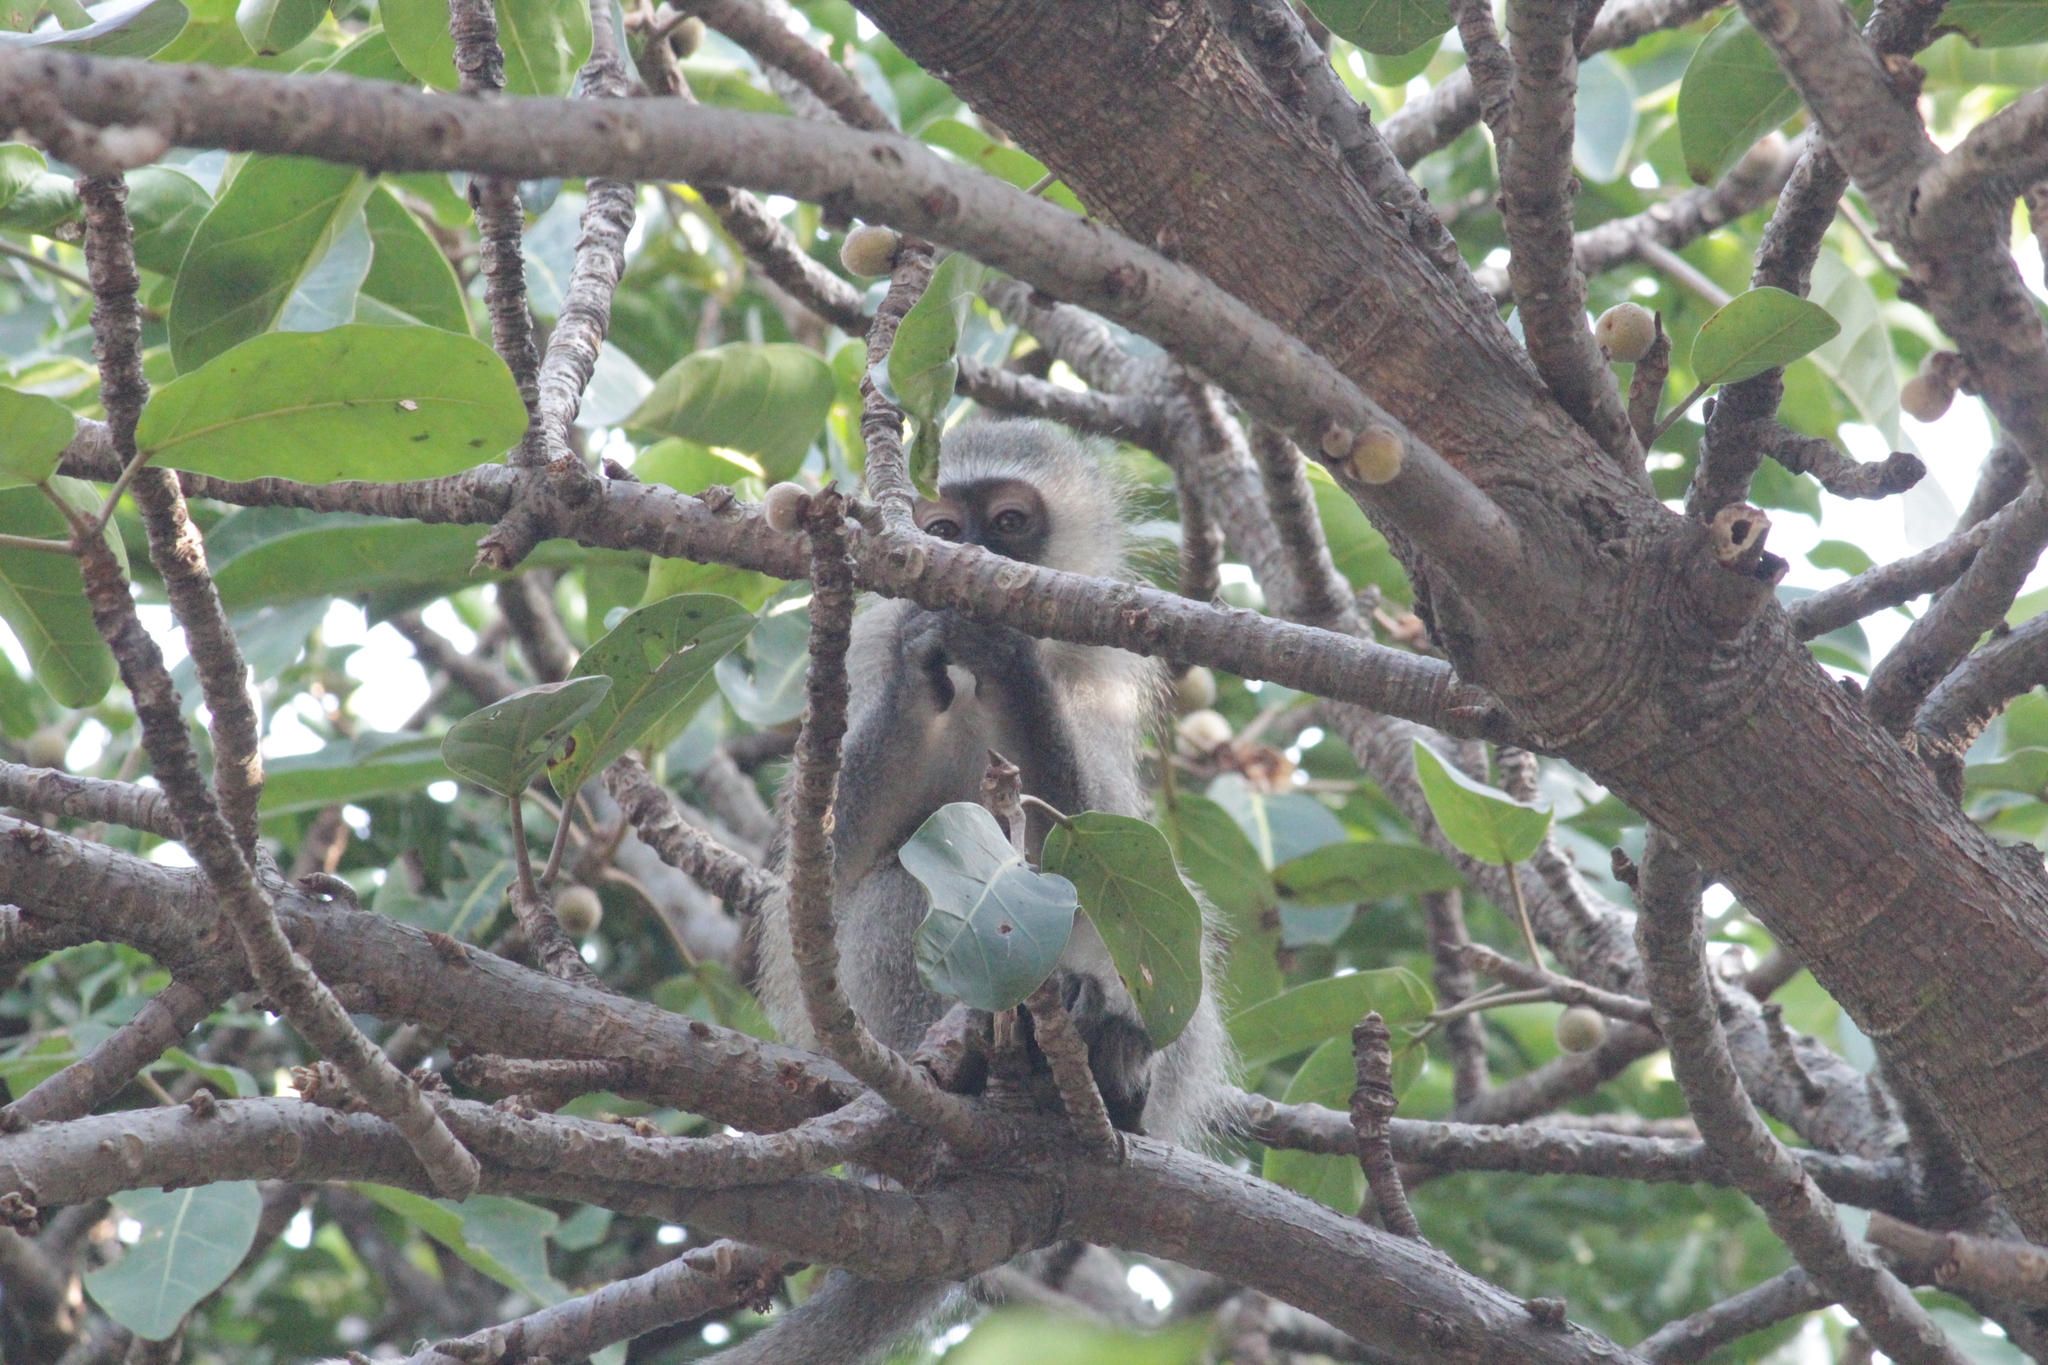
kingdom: Animalia
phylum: Chordata
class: Mammalia
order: Primates
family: Cercopithecidae
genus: Chlorocebus
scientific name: Chlorocebus pygerythrus
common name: Vervet monkey
